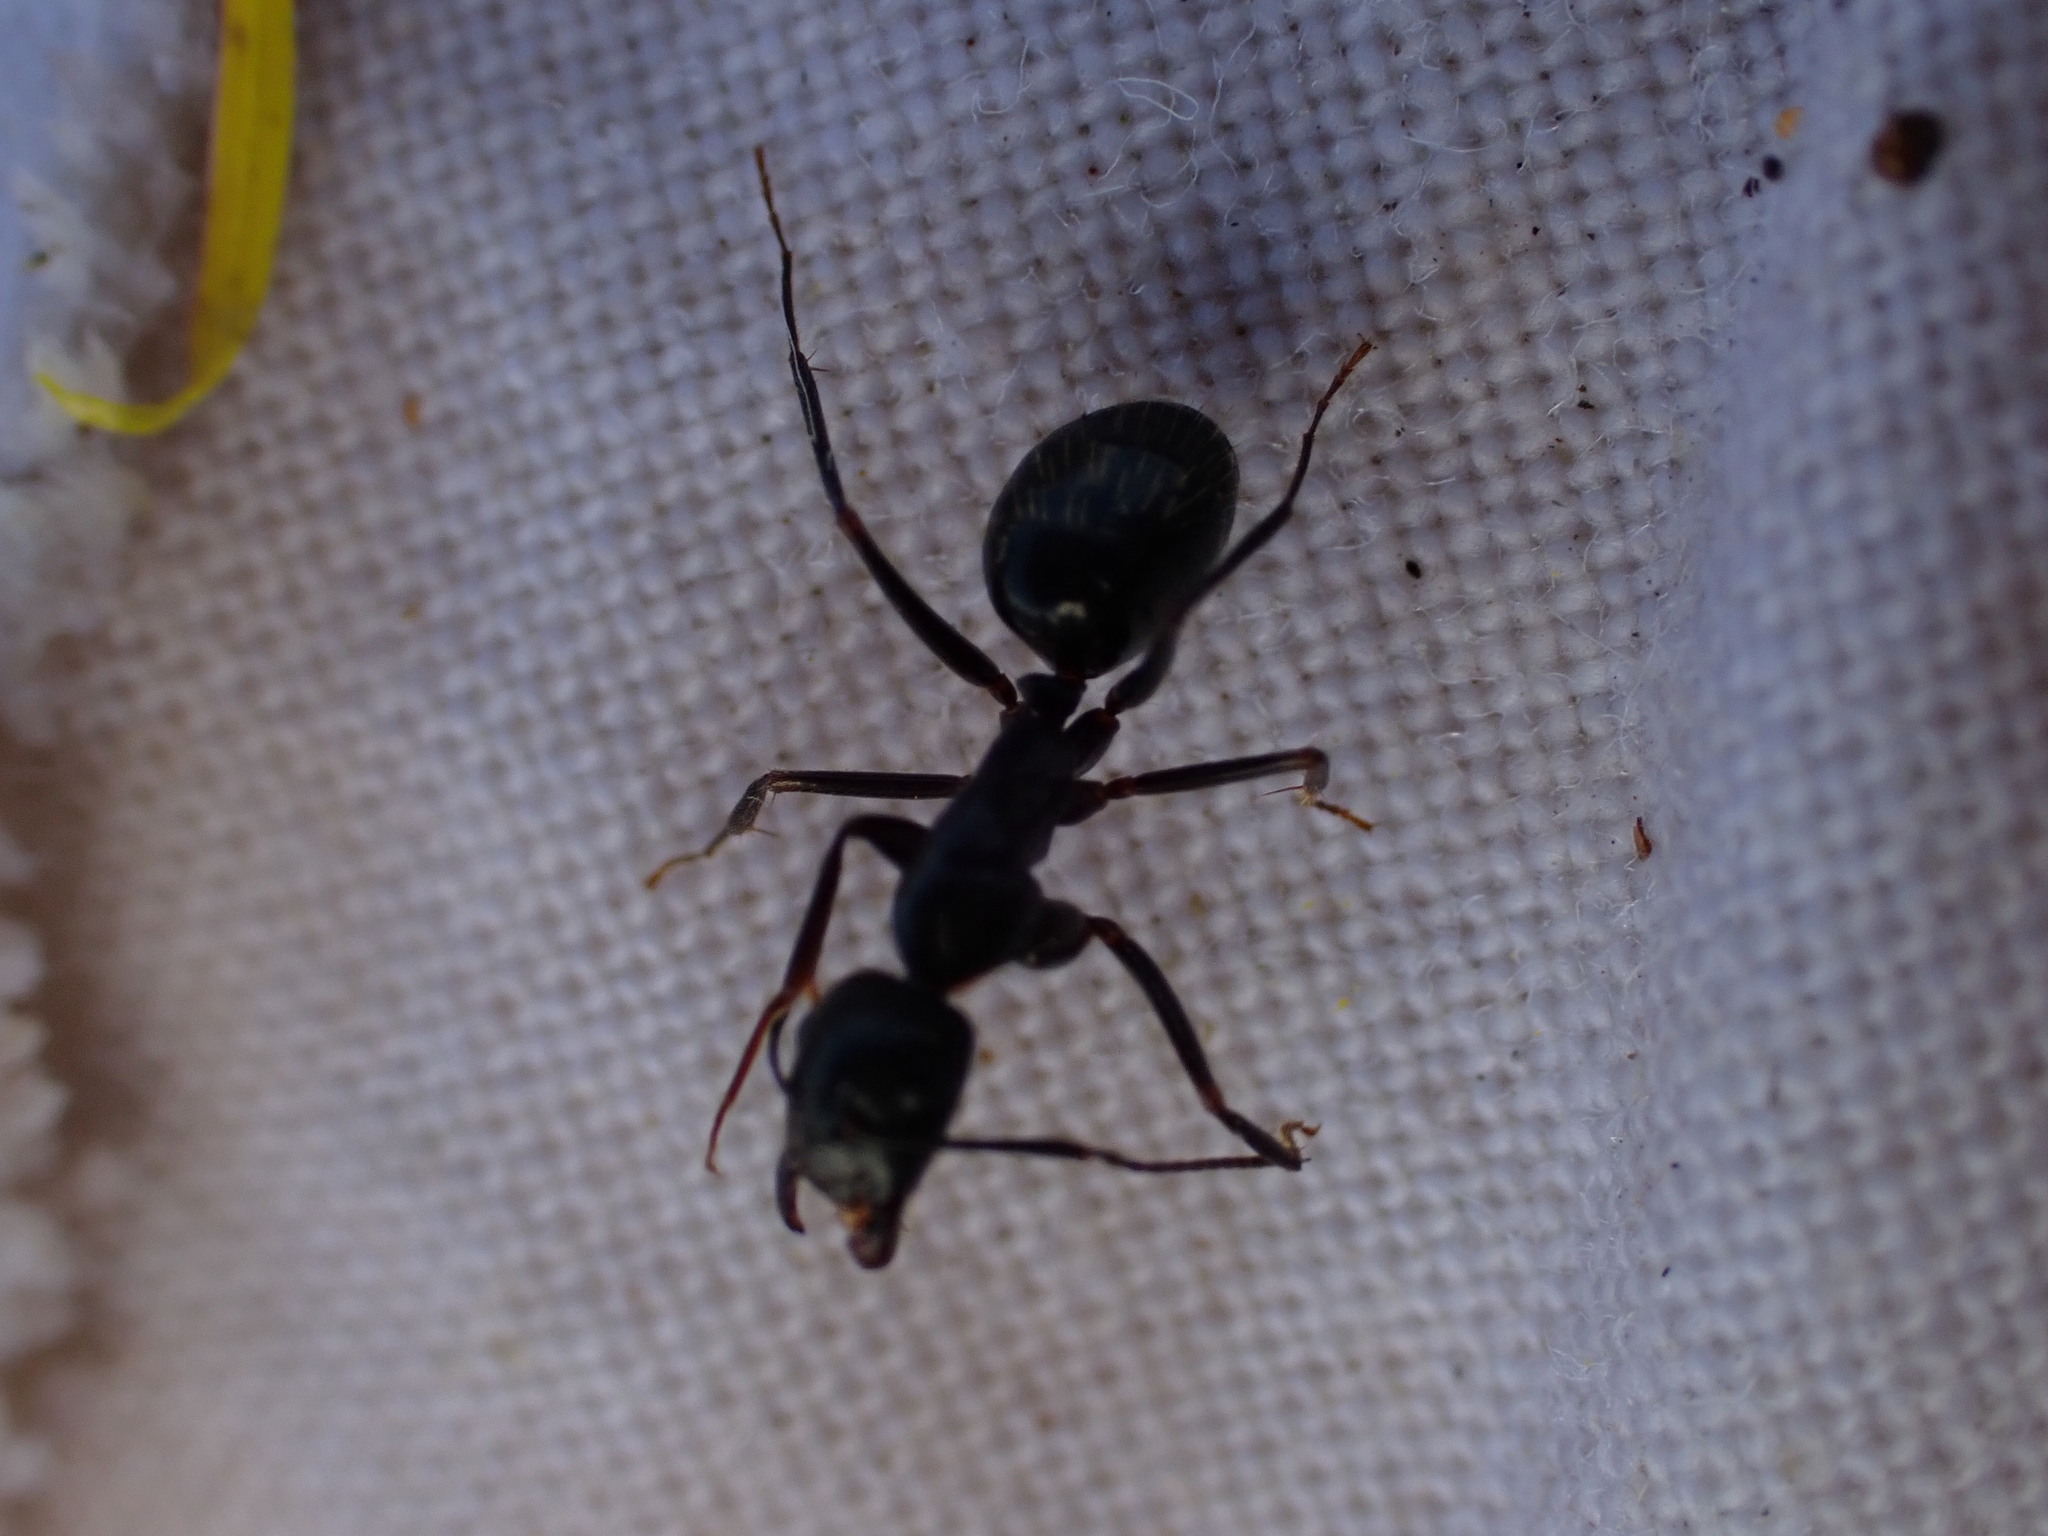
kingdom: Animalia
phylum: Arthropoda
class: Insecta
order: Hymenoptera
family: Formicidae
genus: Camponotus
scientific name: Camponotus aethiops
